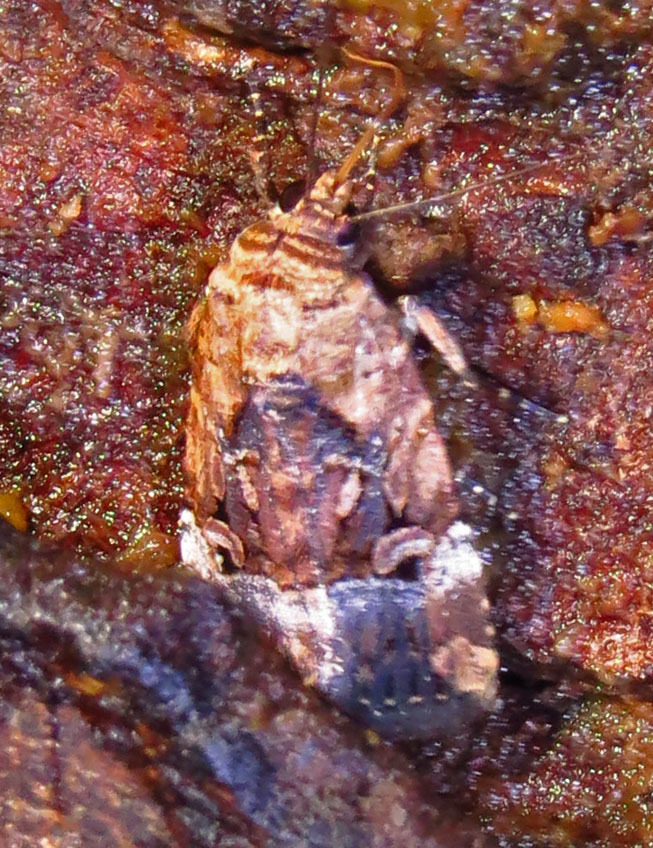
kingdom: Animalia
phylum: Arthropoda
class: Insecta
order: Lepidoptera
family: Noctuidae
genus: Elaphria
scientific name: Elaphria chalcedonia
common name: Chalcedony midget
